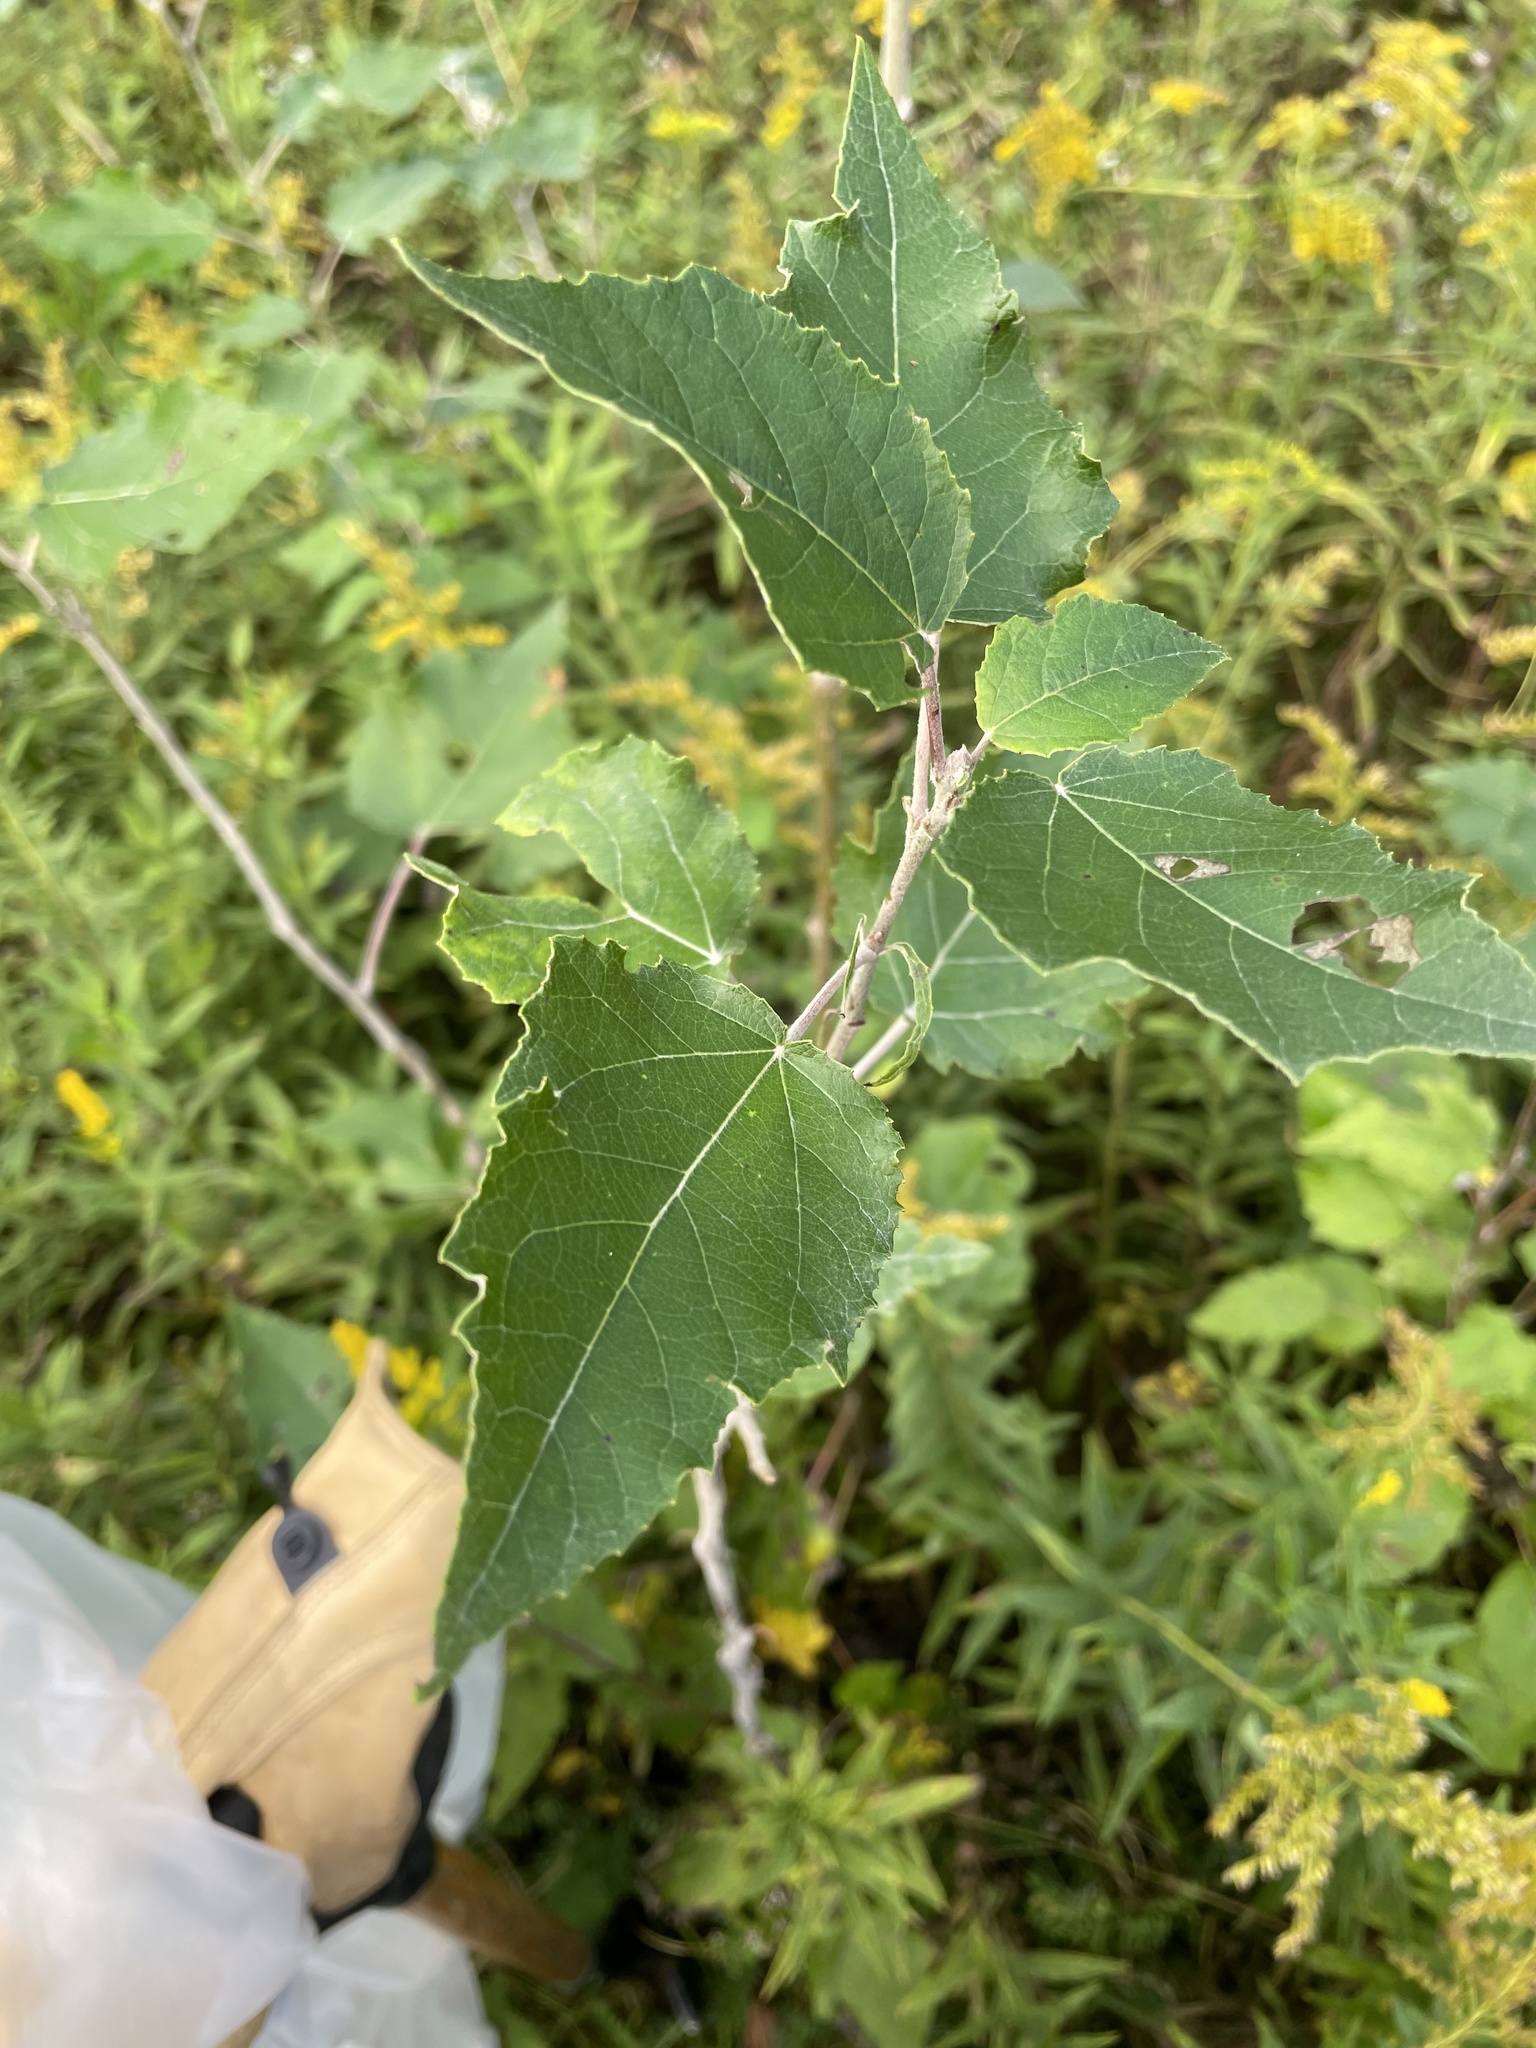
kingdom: Plantae
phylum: Tracheophyta
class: Magnoliopsida
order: Malpighiales
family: Salicaceae
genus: Populus
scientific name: Populus alba
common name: White poplar
